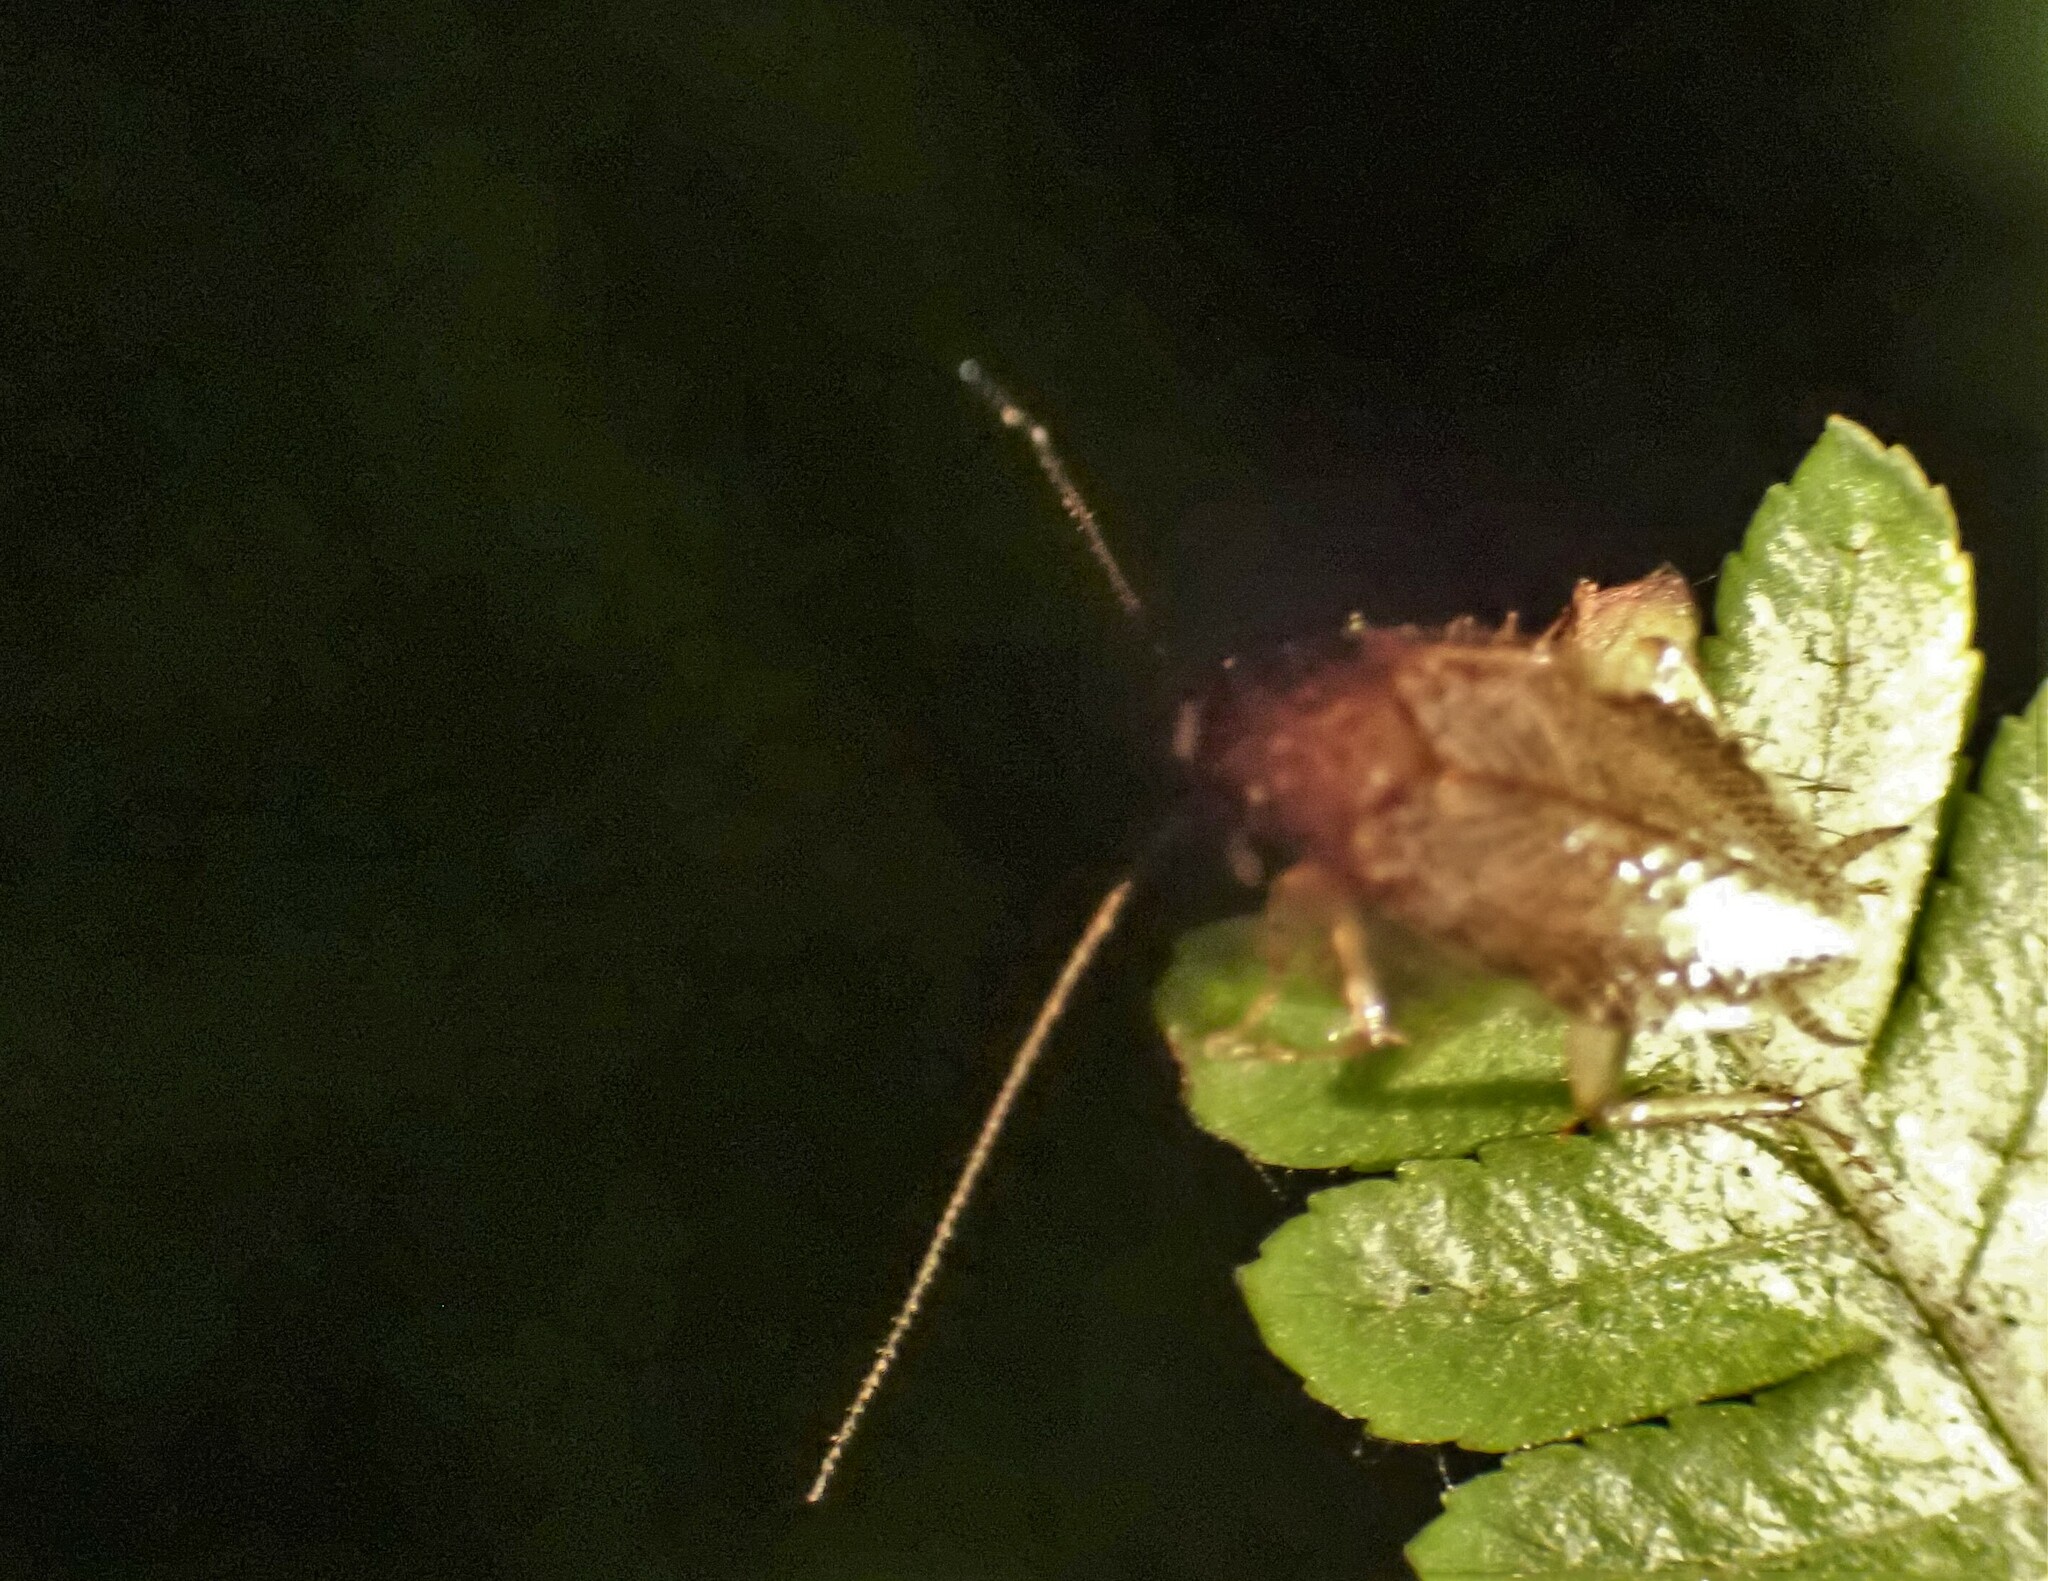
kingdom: Animalia
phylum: Arthropoda
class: Insecta
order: Blattodea
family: Ectobiidae
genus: Celeriblattina
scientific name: Celeriblattina major
